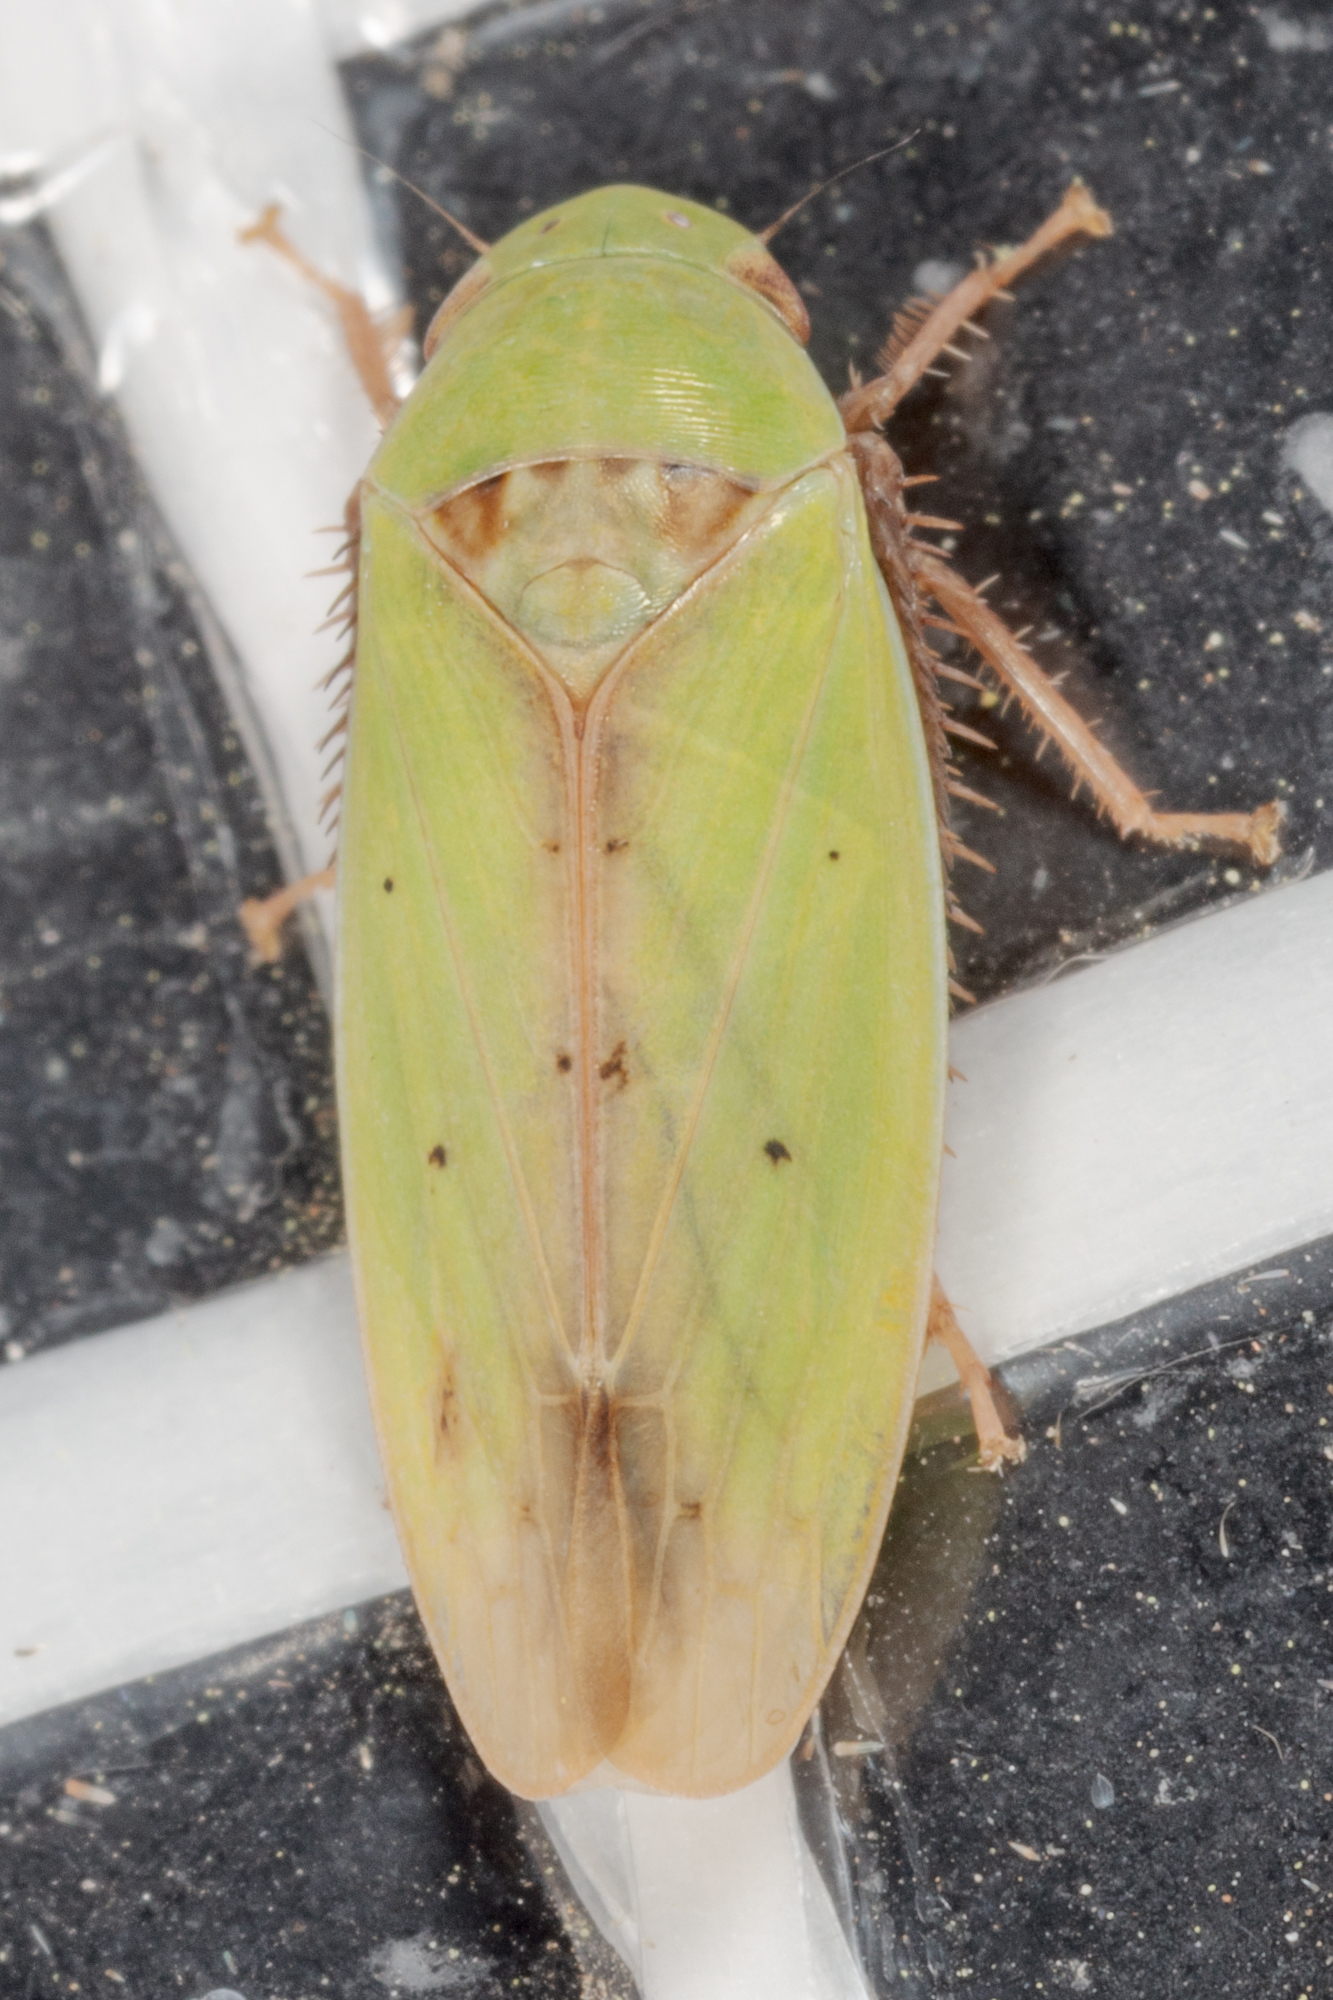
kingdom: Animalia
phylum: Arthropoda
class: Insecta
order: Hemiptera
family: Cicadellidae
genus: Ponana
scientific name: Ponana
